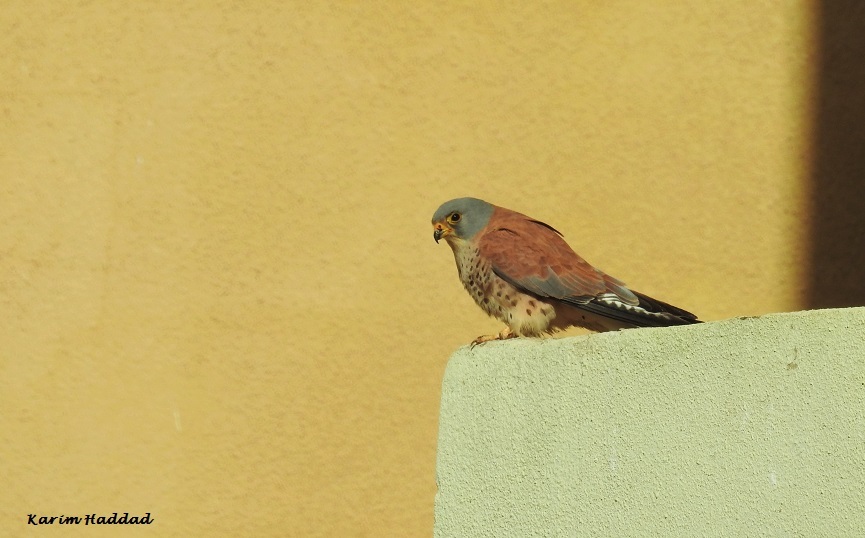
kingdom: Animalia
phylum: Chordata
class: Aves
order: Falconiformes
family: Falconidae
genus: Falco
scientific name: Falco naumanni
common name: Lesser kestrel
